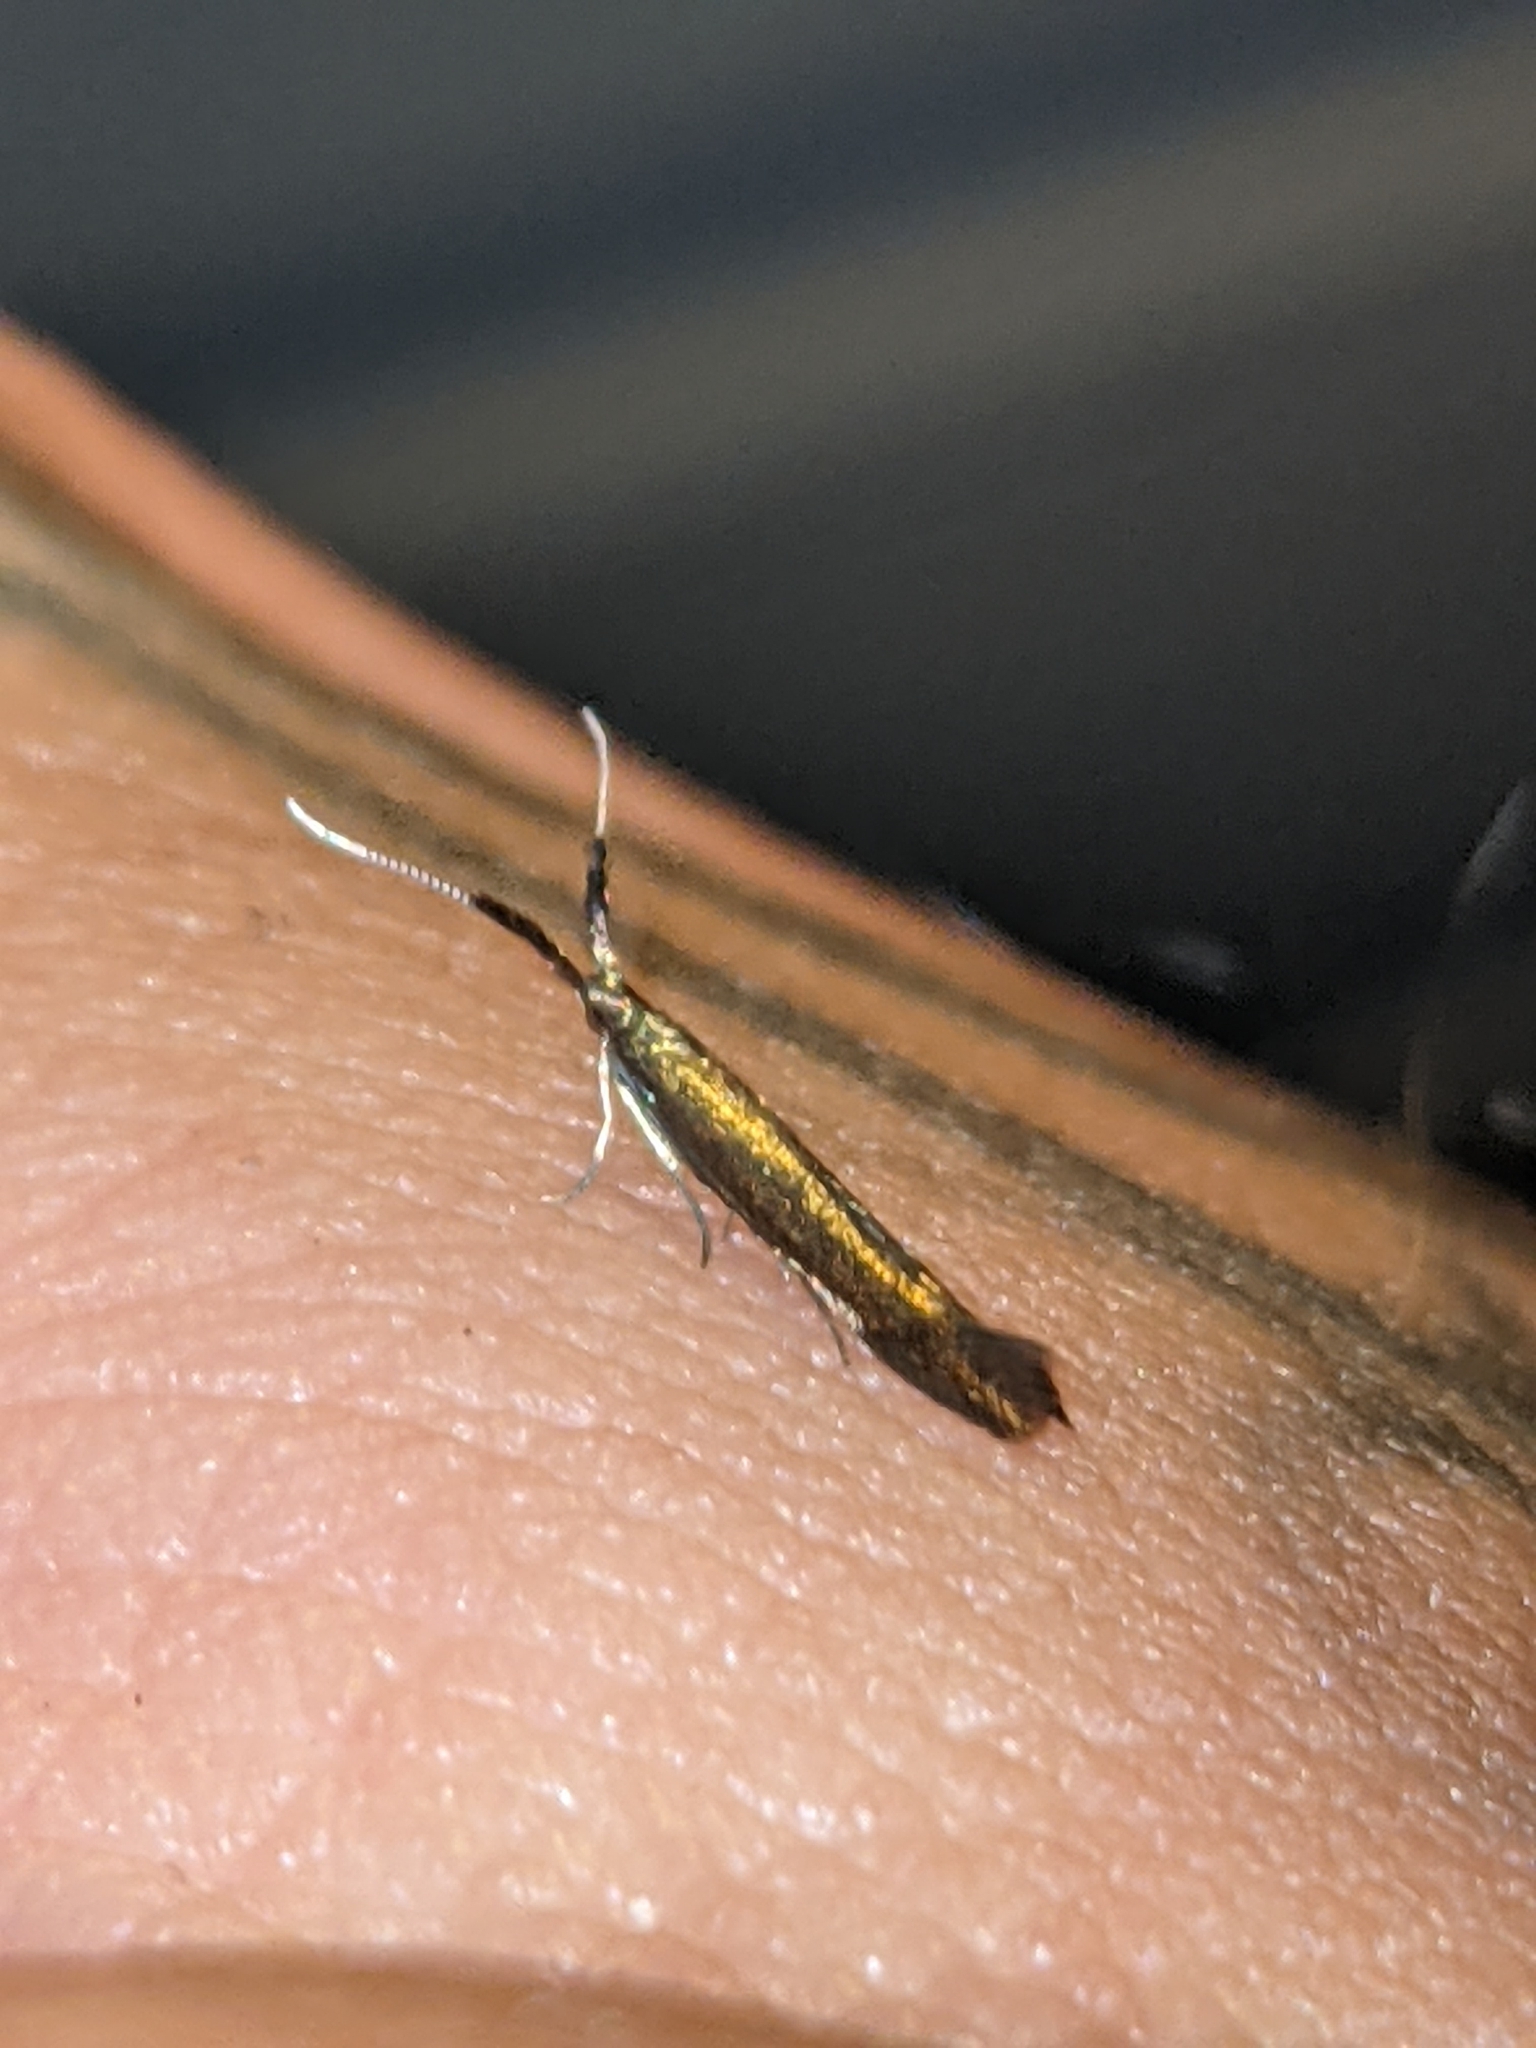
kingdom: Animalia
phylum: Arthropoda
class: Insecta
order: Lepidoptera
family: Coleophoridae
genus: Coleophora
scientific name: Coleophora mayrella
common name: Meadow case-bearer
